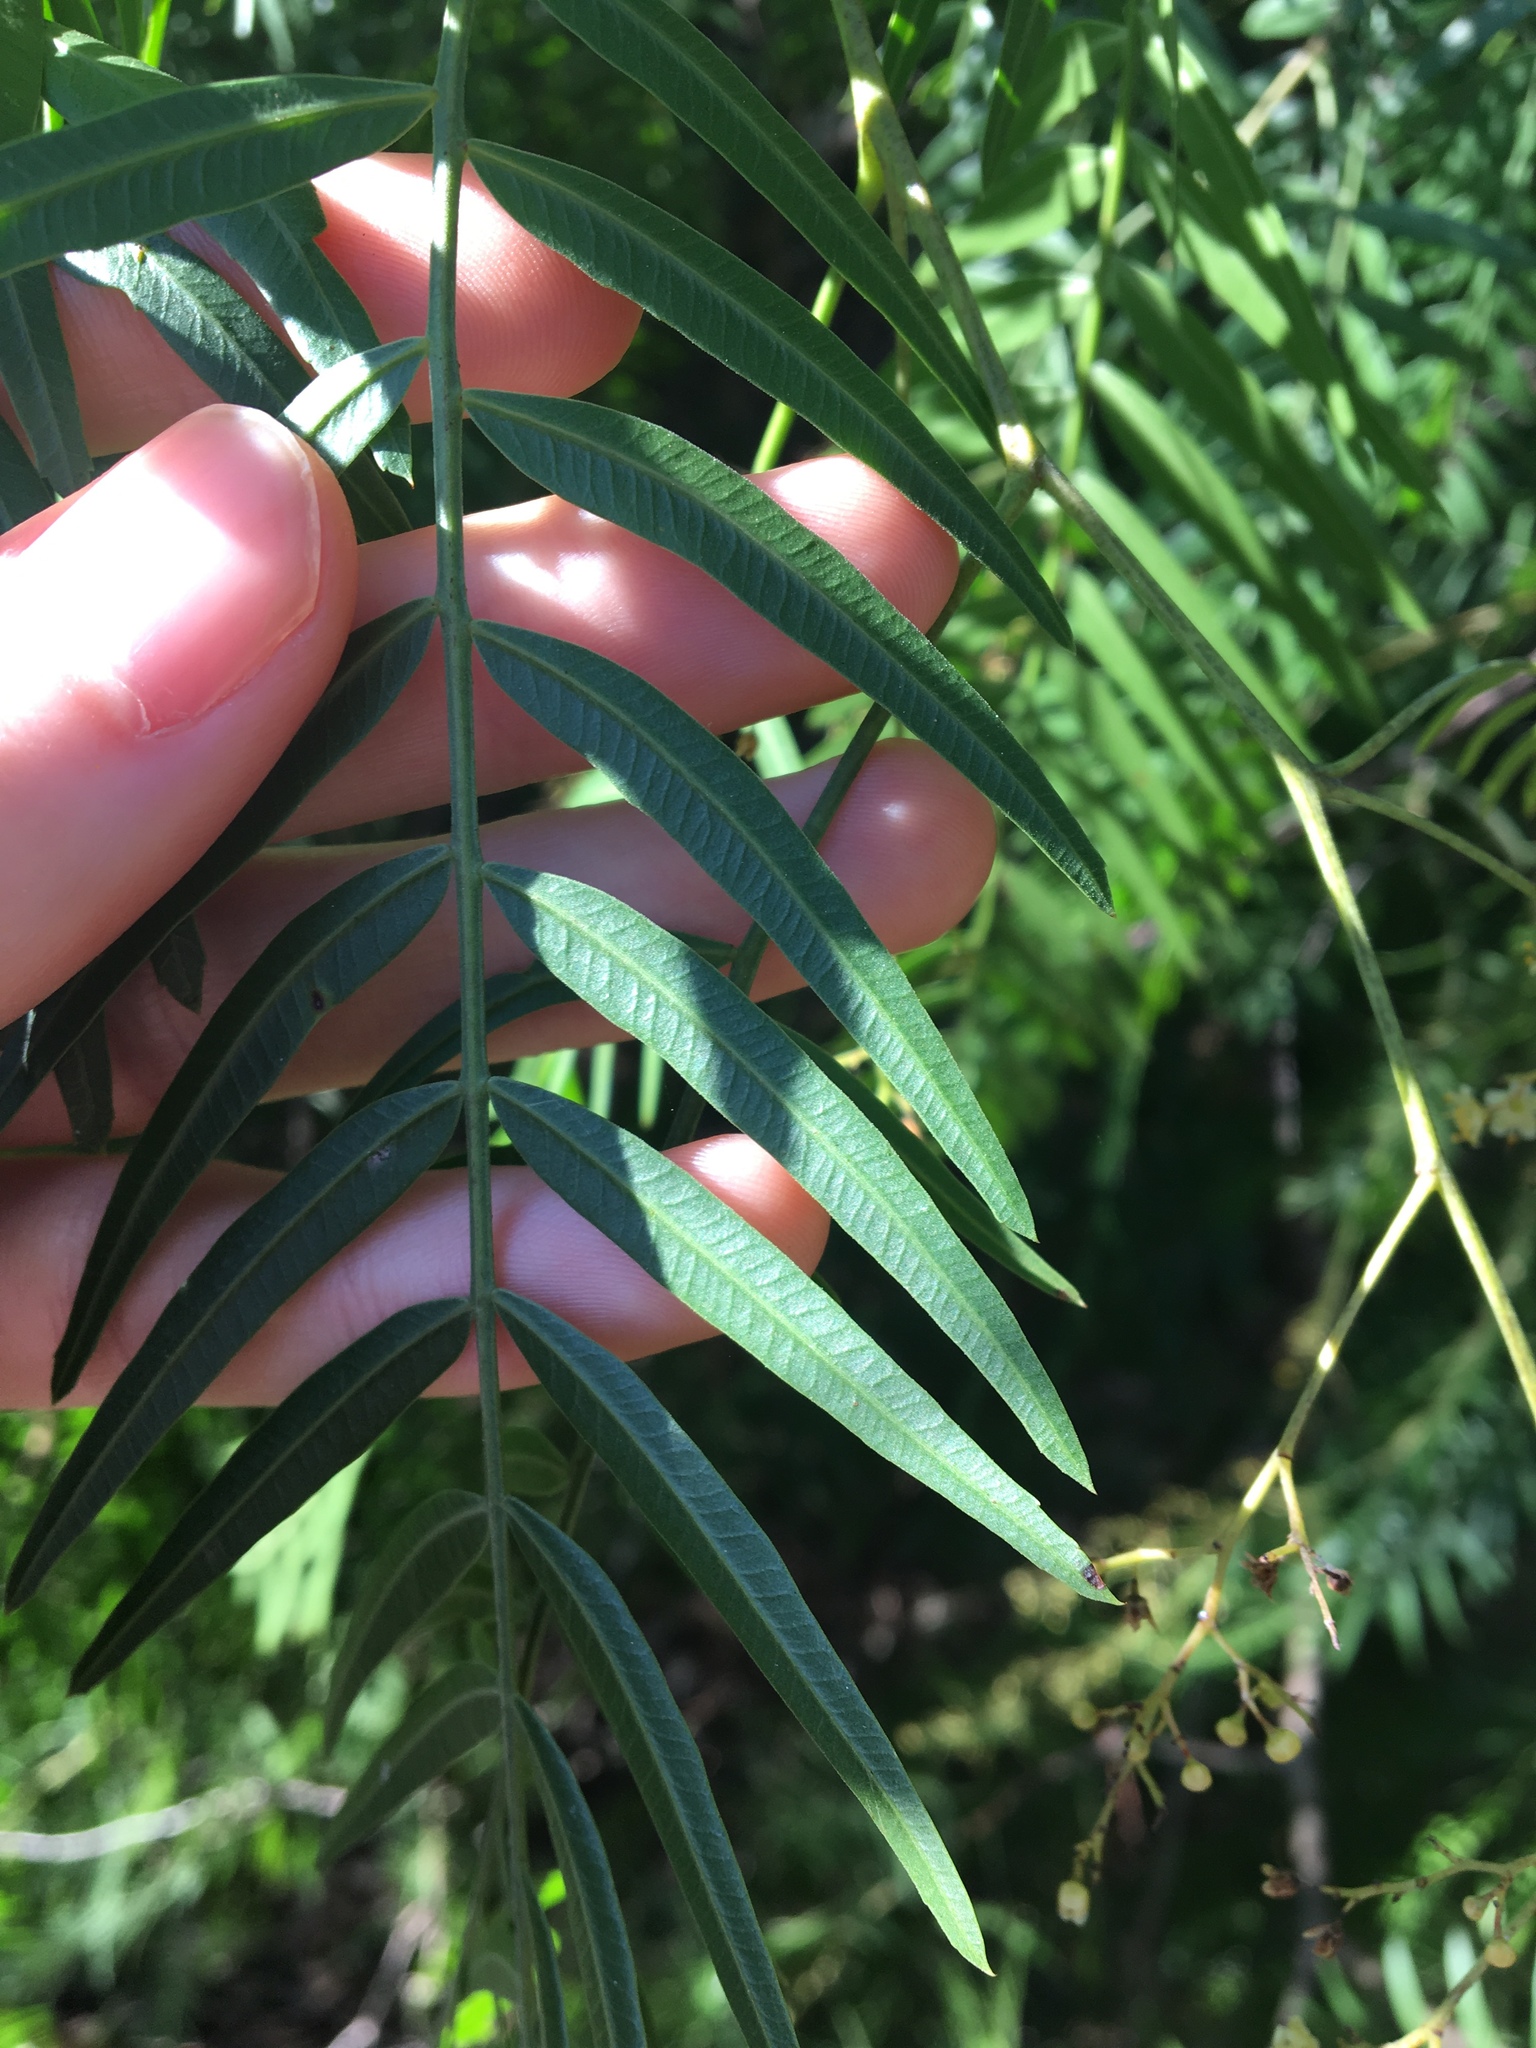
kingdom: Plantae
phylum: Tracheophyta
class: Magnoliopsida
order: Sapindales
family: Anacardiaceae
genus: Schinus
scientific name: Schinus molle
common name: Peruvian peppertree
